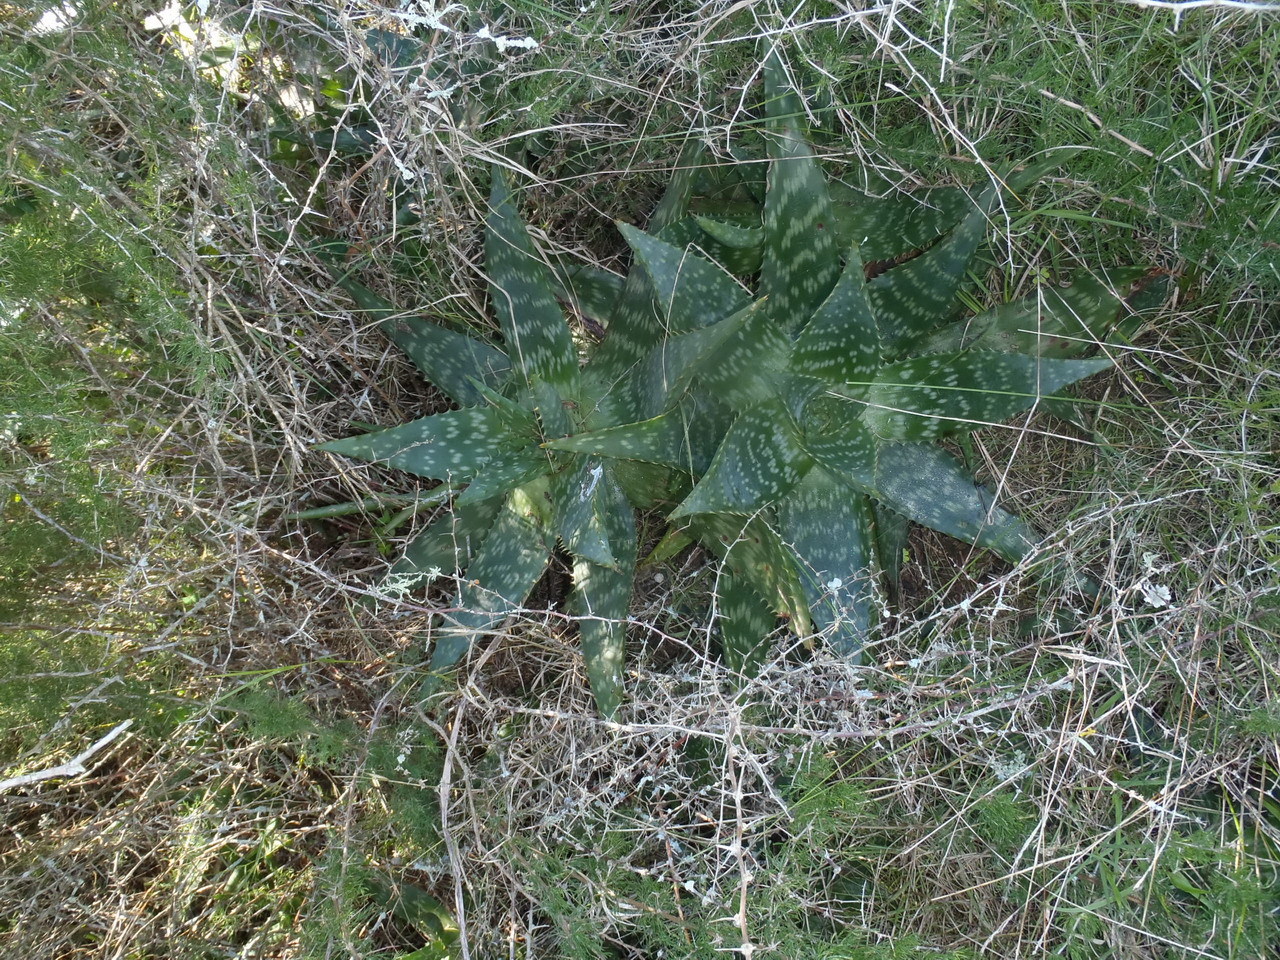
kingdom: Plantae
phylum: Tracheophyta
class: Liliopsida
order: Asparagales
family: Asphodelaceae
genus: Aloe
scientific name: Aloe maculata
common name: Broadleaf aloe
